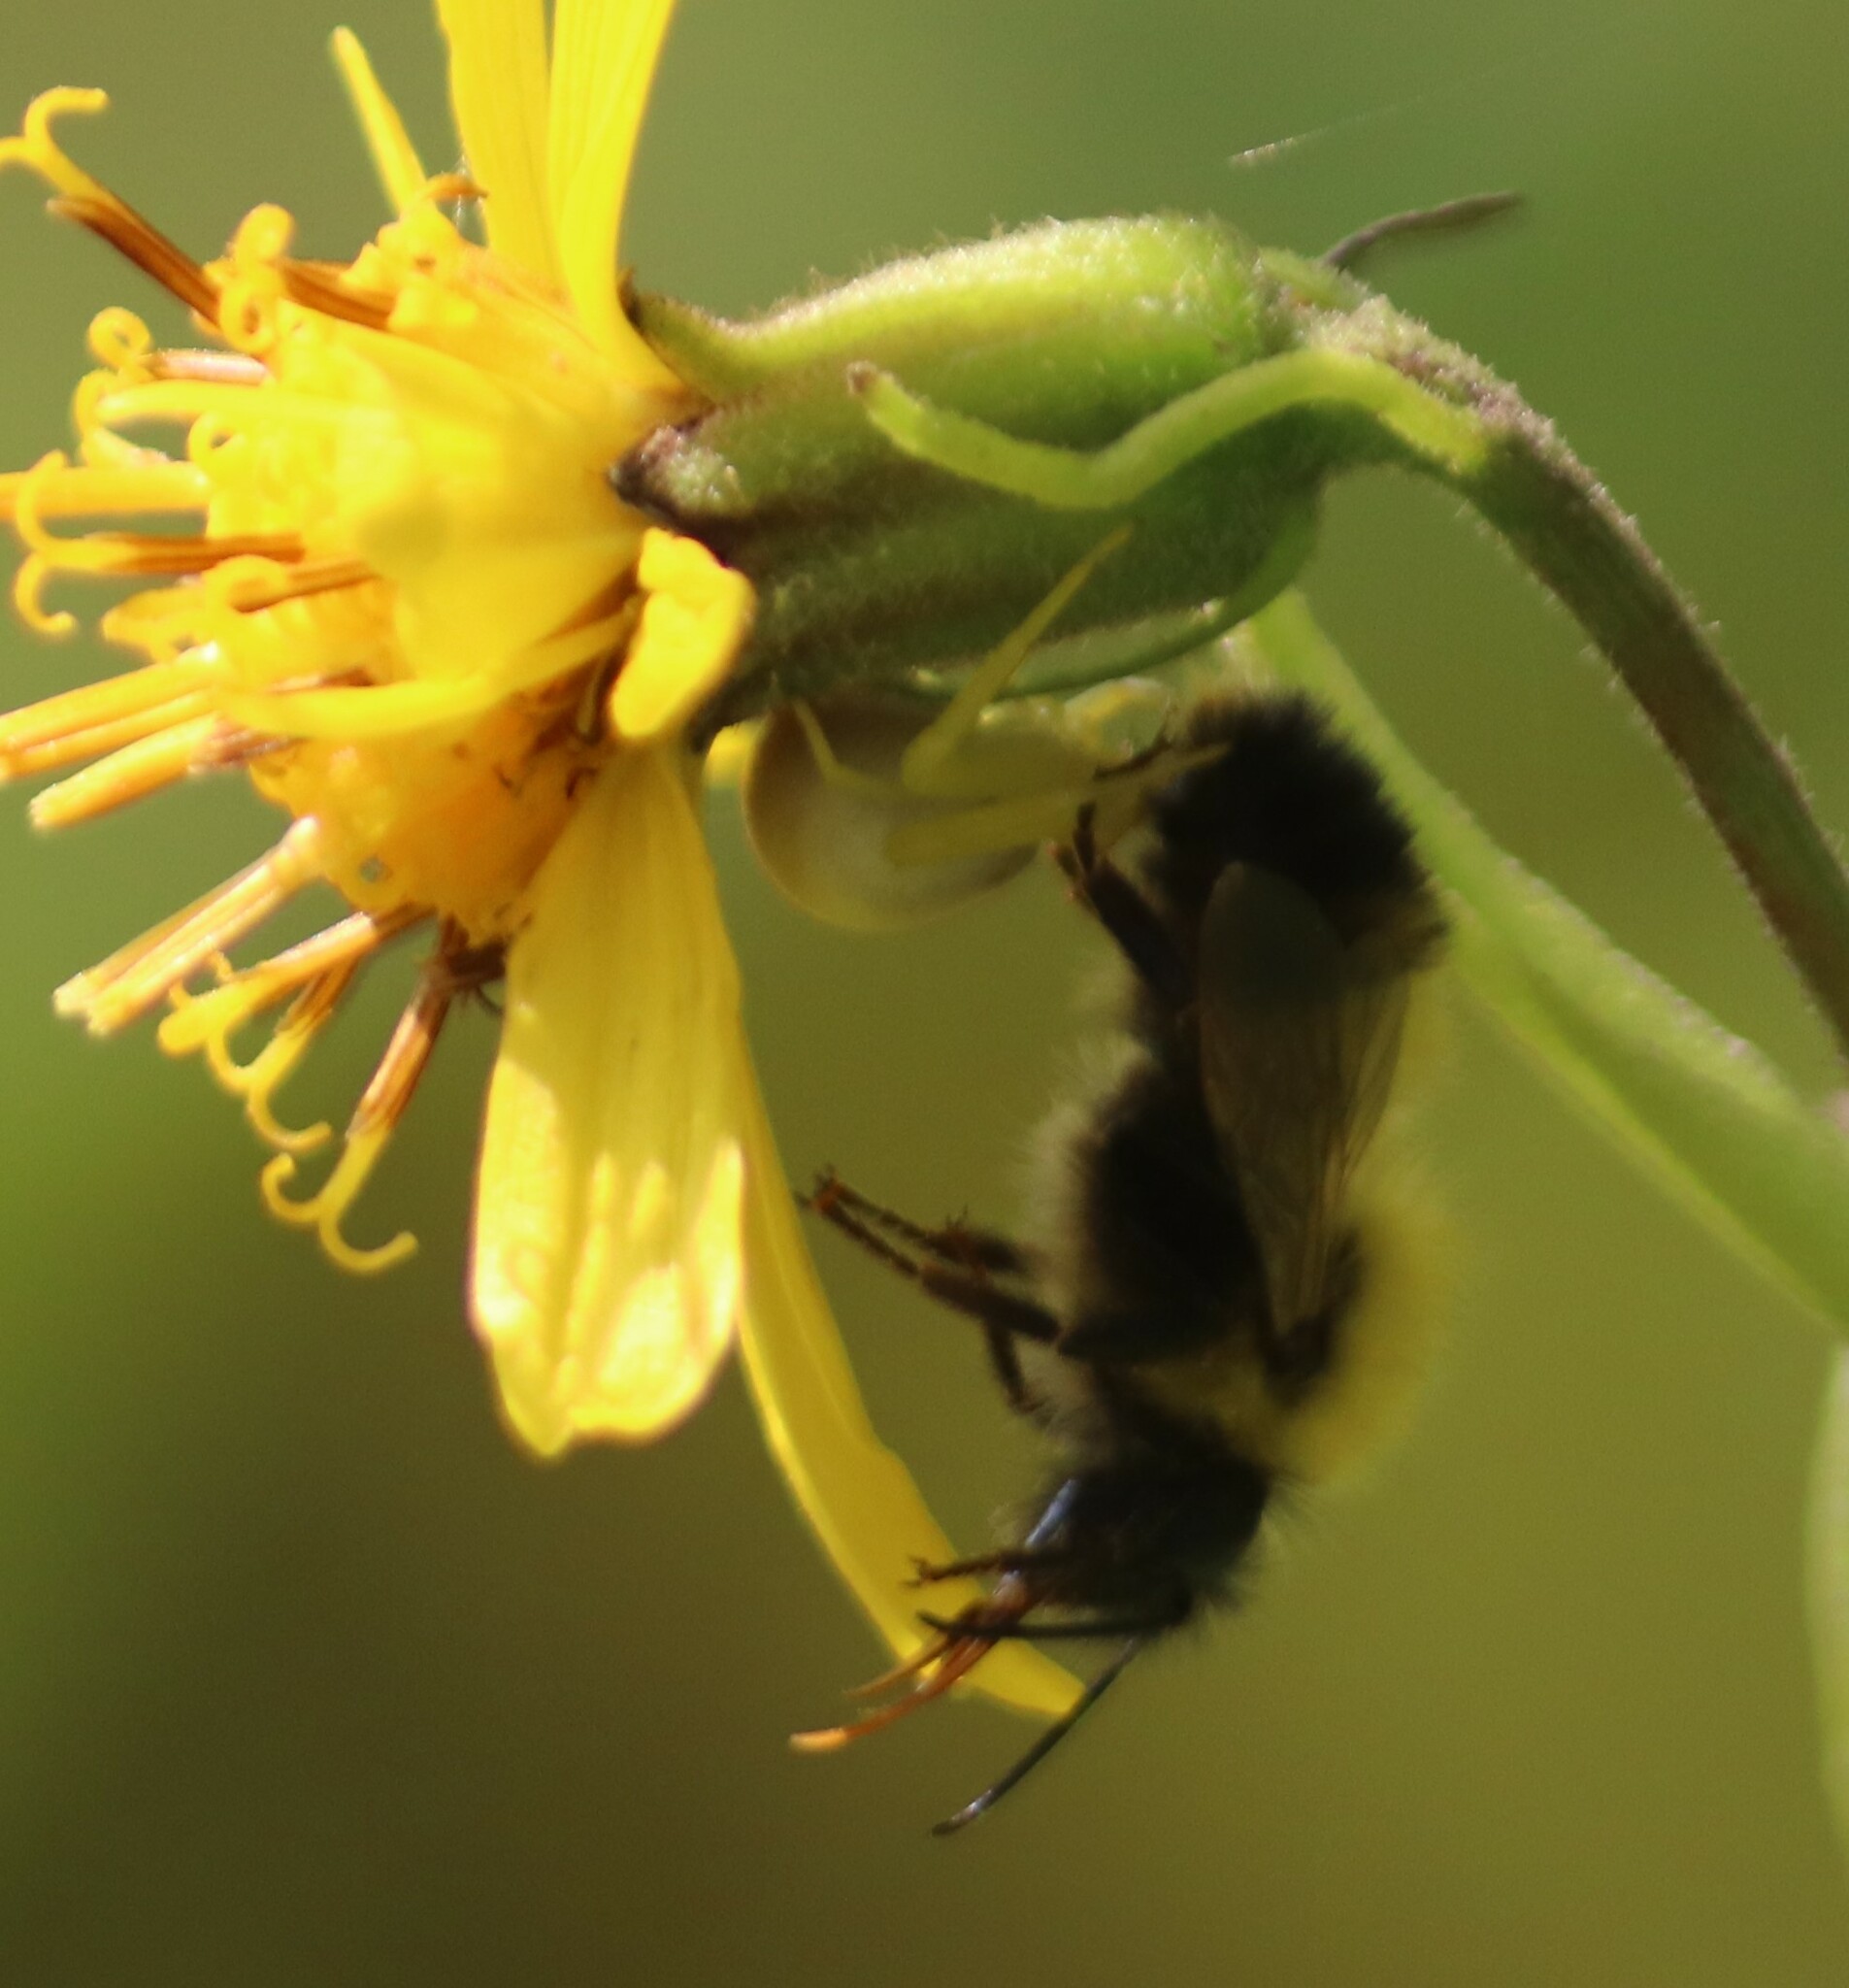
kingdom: Animalia
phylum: Arthropoda
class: Insecta
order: Hymenoptera
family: Apidae
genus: Bombus
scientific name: Bombus perplexus
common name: Confusing bumble bee
